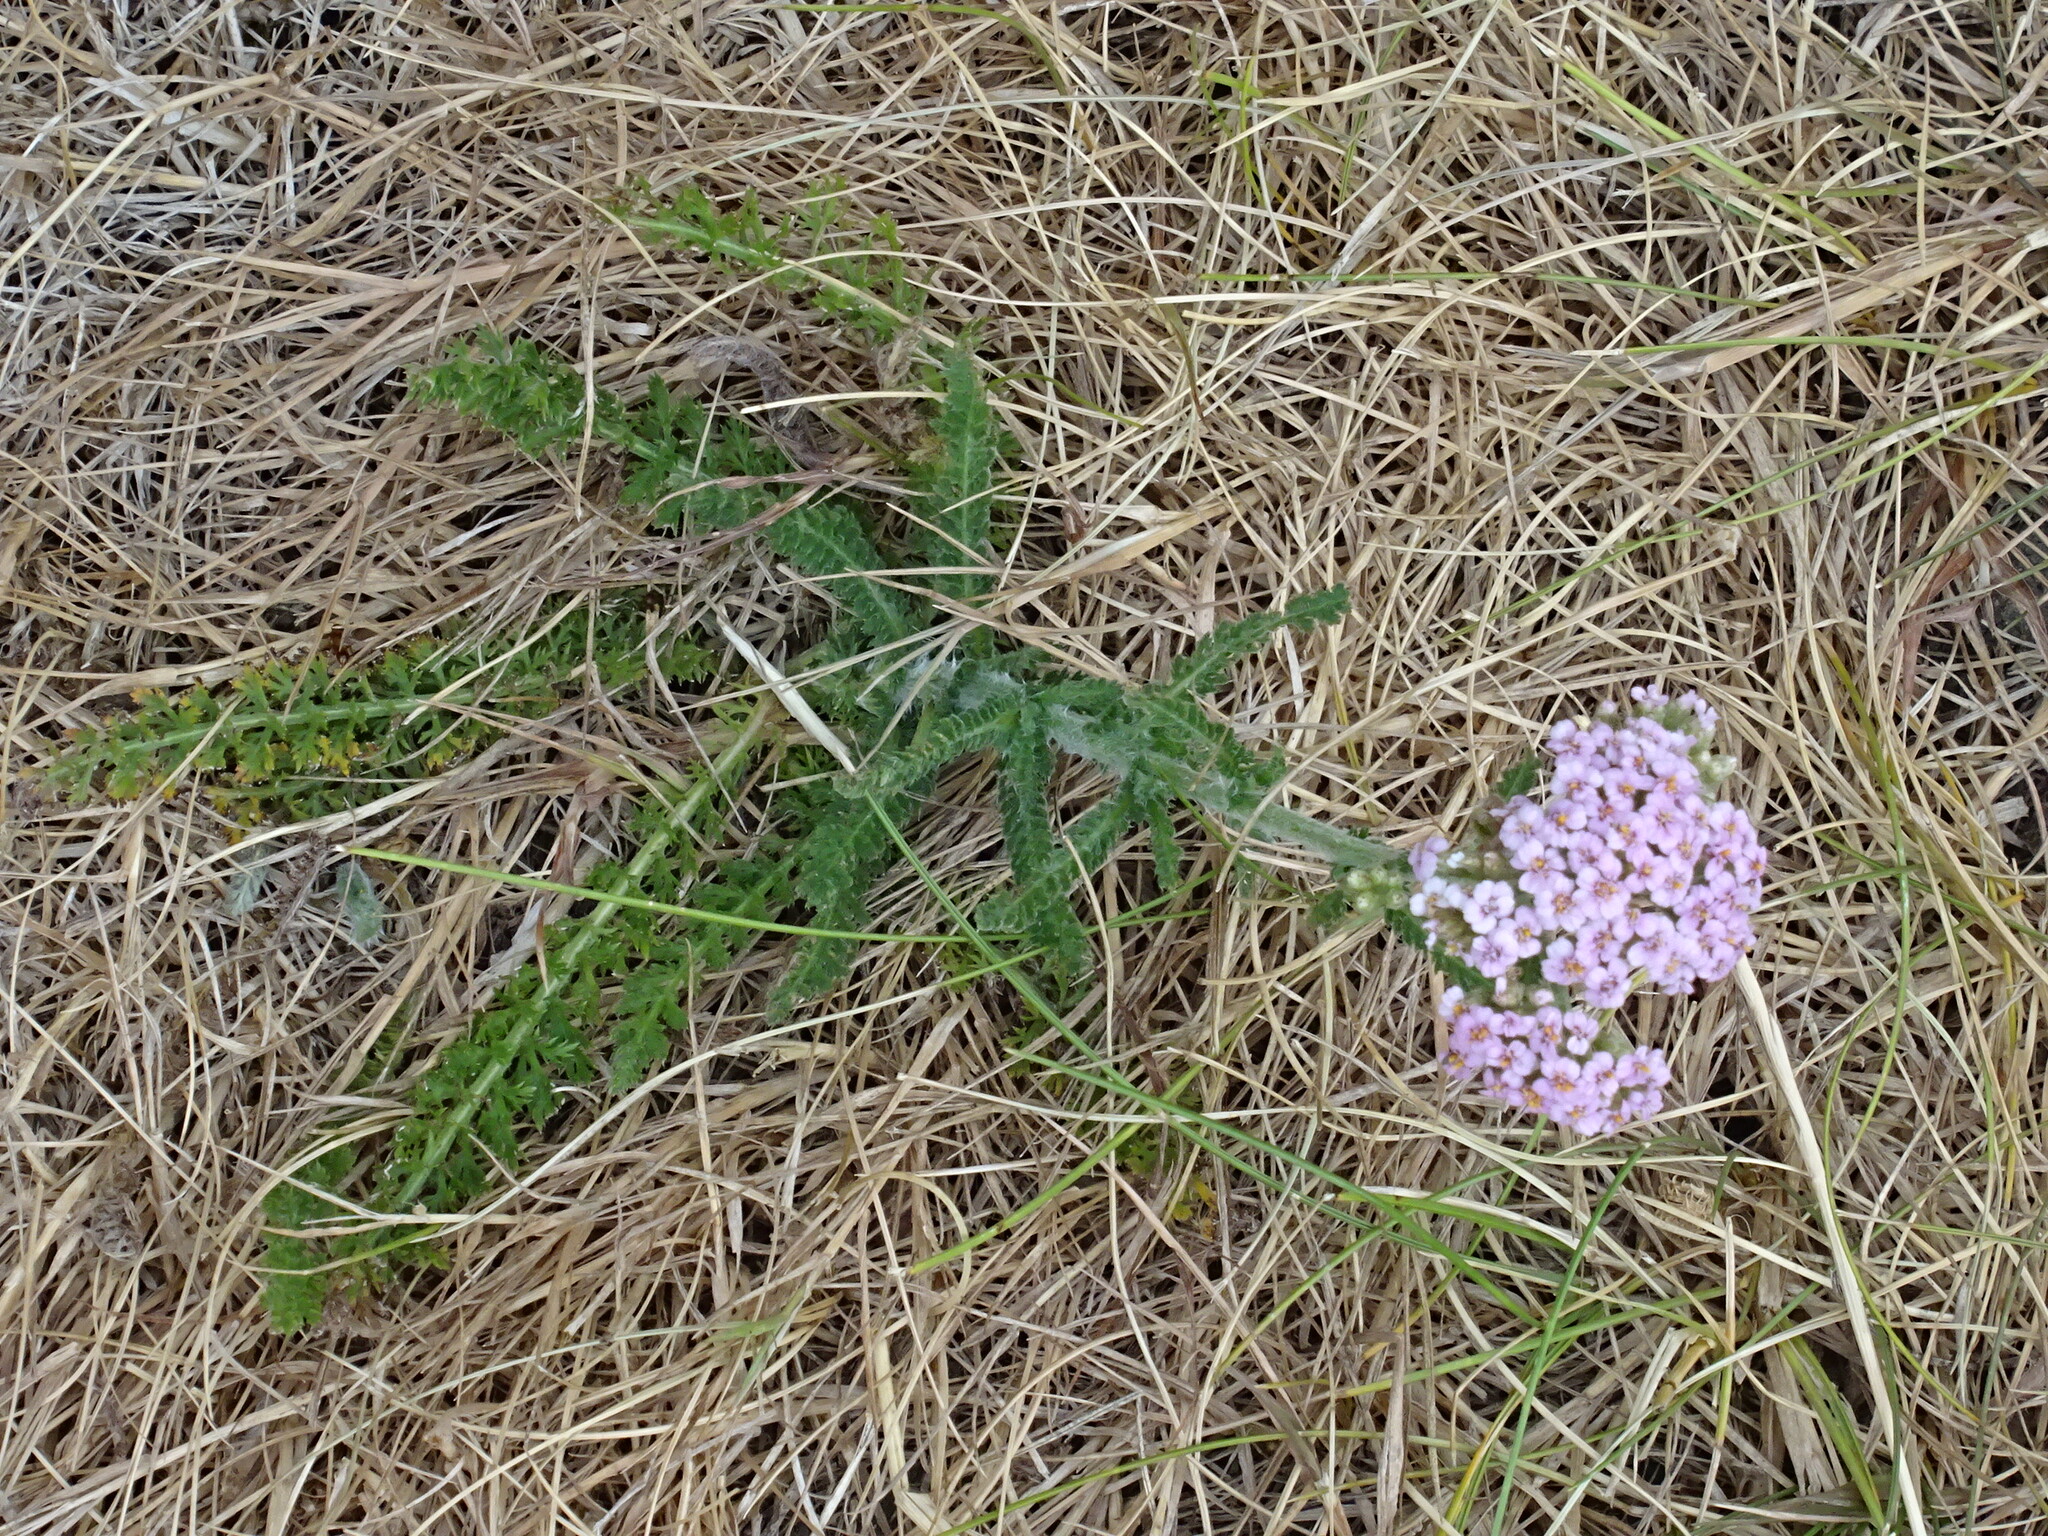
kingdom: Plantae
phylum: Tracheophyta
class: Magnoliopsida
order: Asterales
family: Asteraceae
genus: Achillea
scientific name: Achillea millefolium
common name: Yarrow
